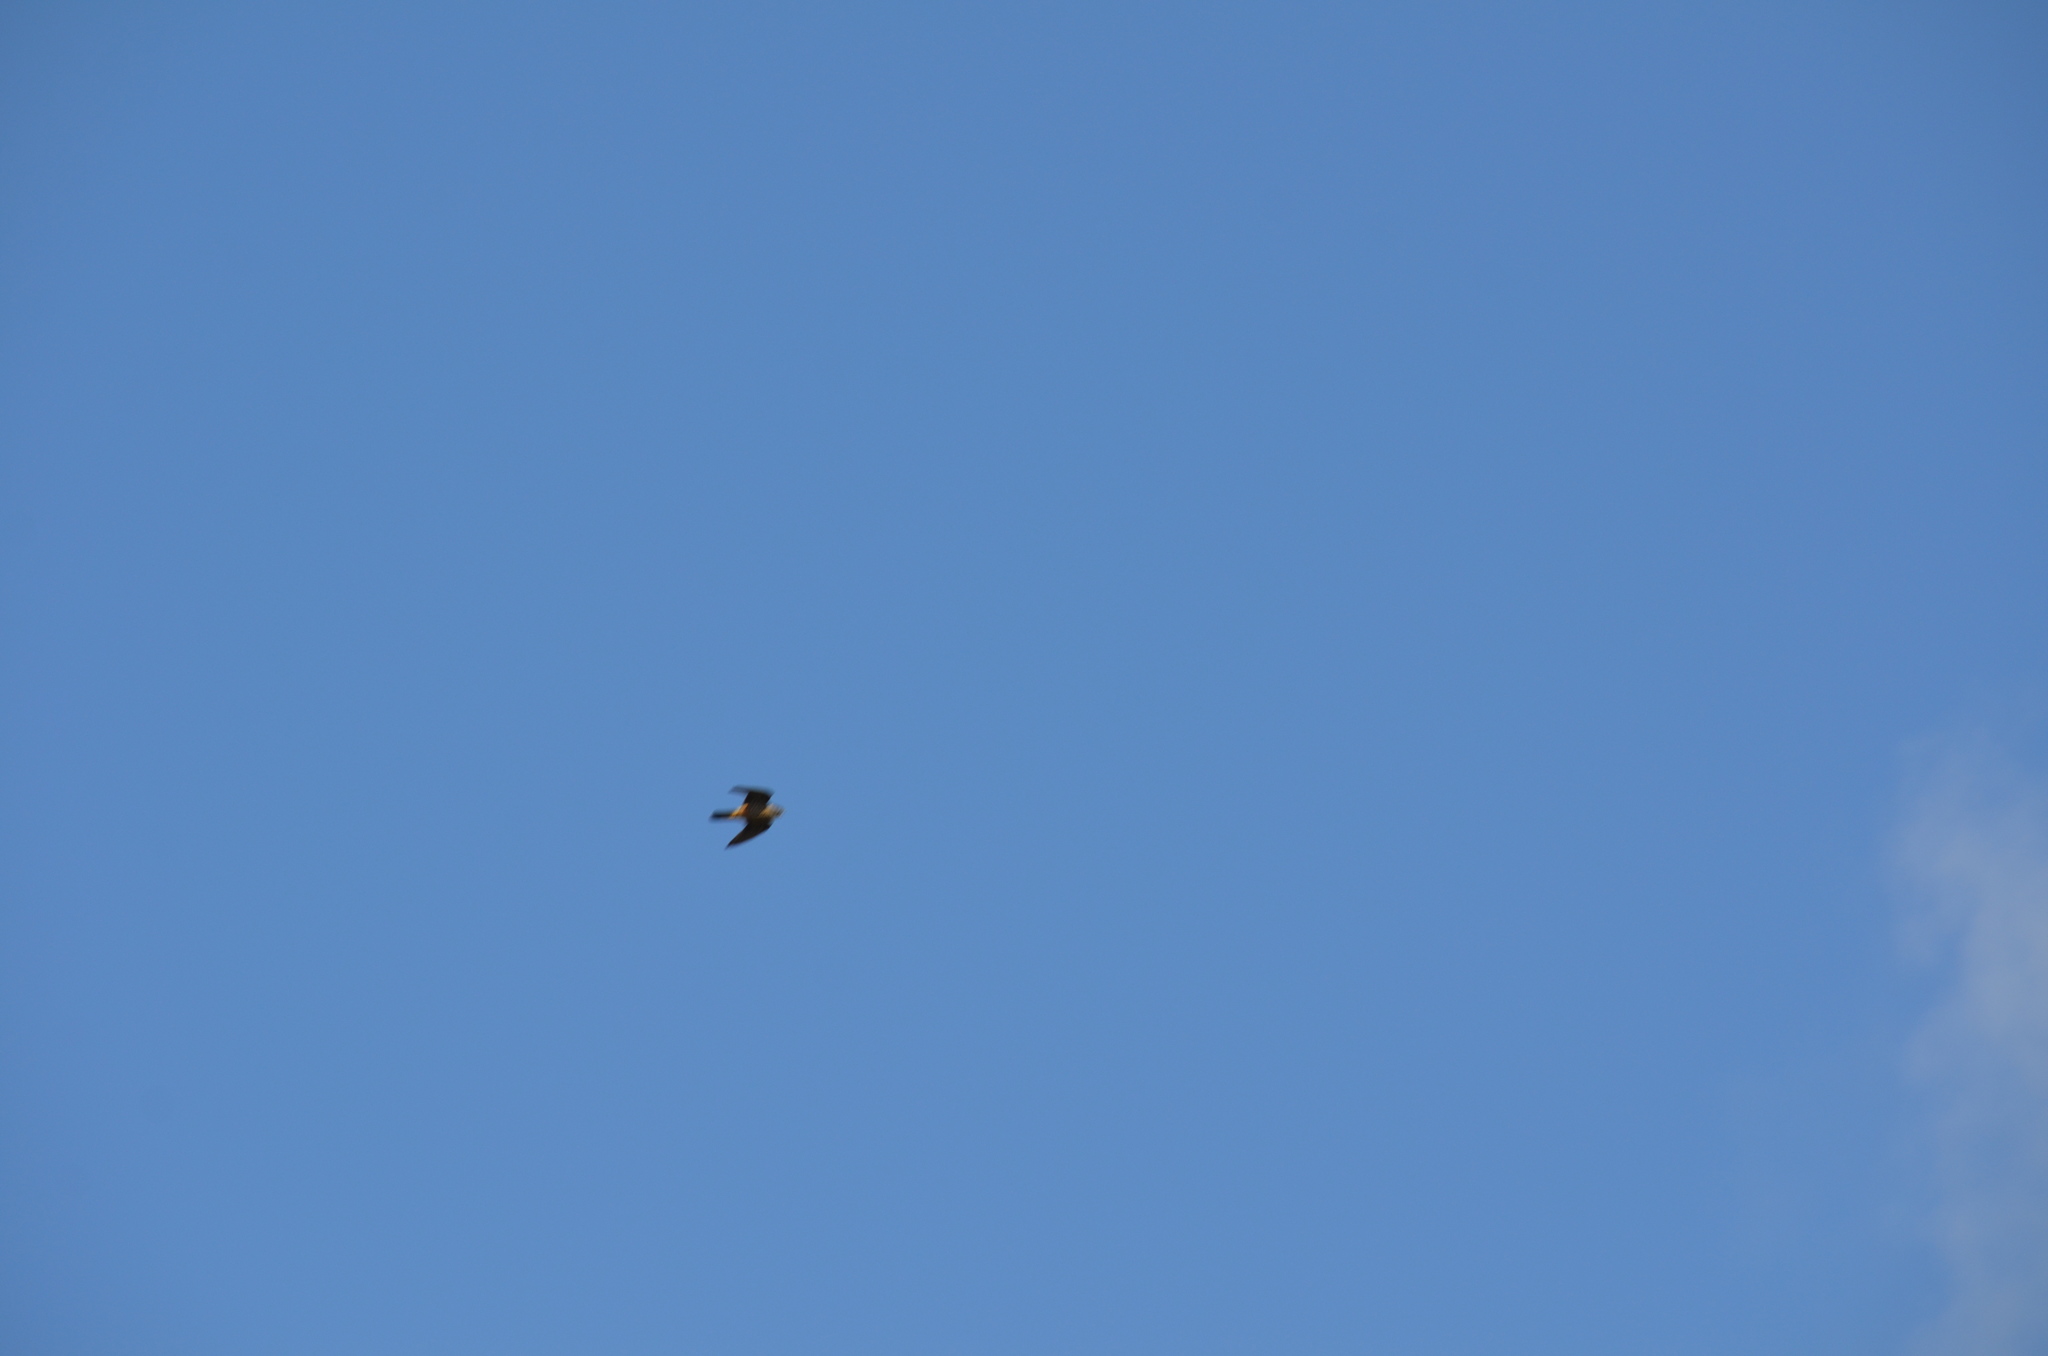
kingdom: Animalia
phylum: Chordata
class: Aves
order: Falconiformes
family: Falconidae
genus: Falco
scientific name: Falco columbarius
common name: Merlin
